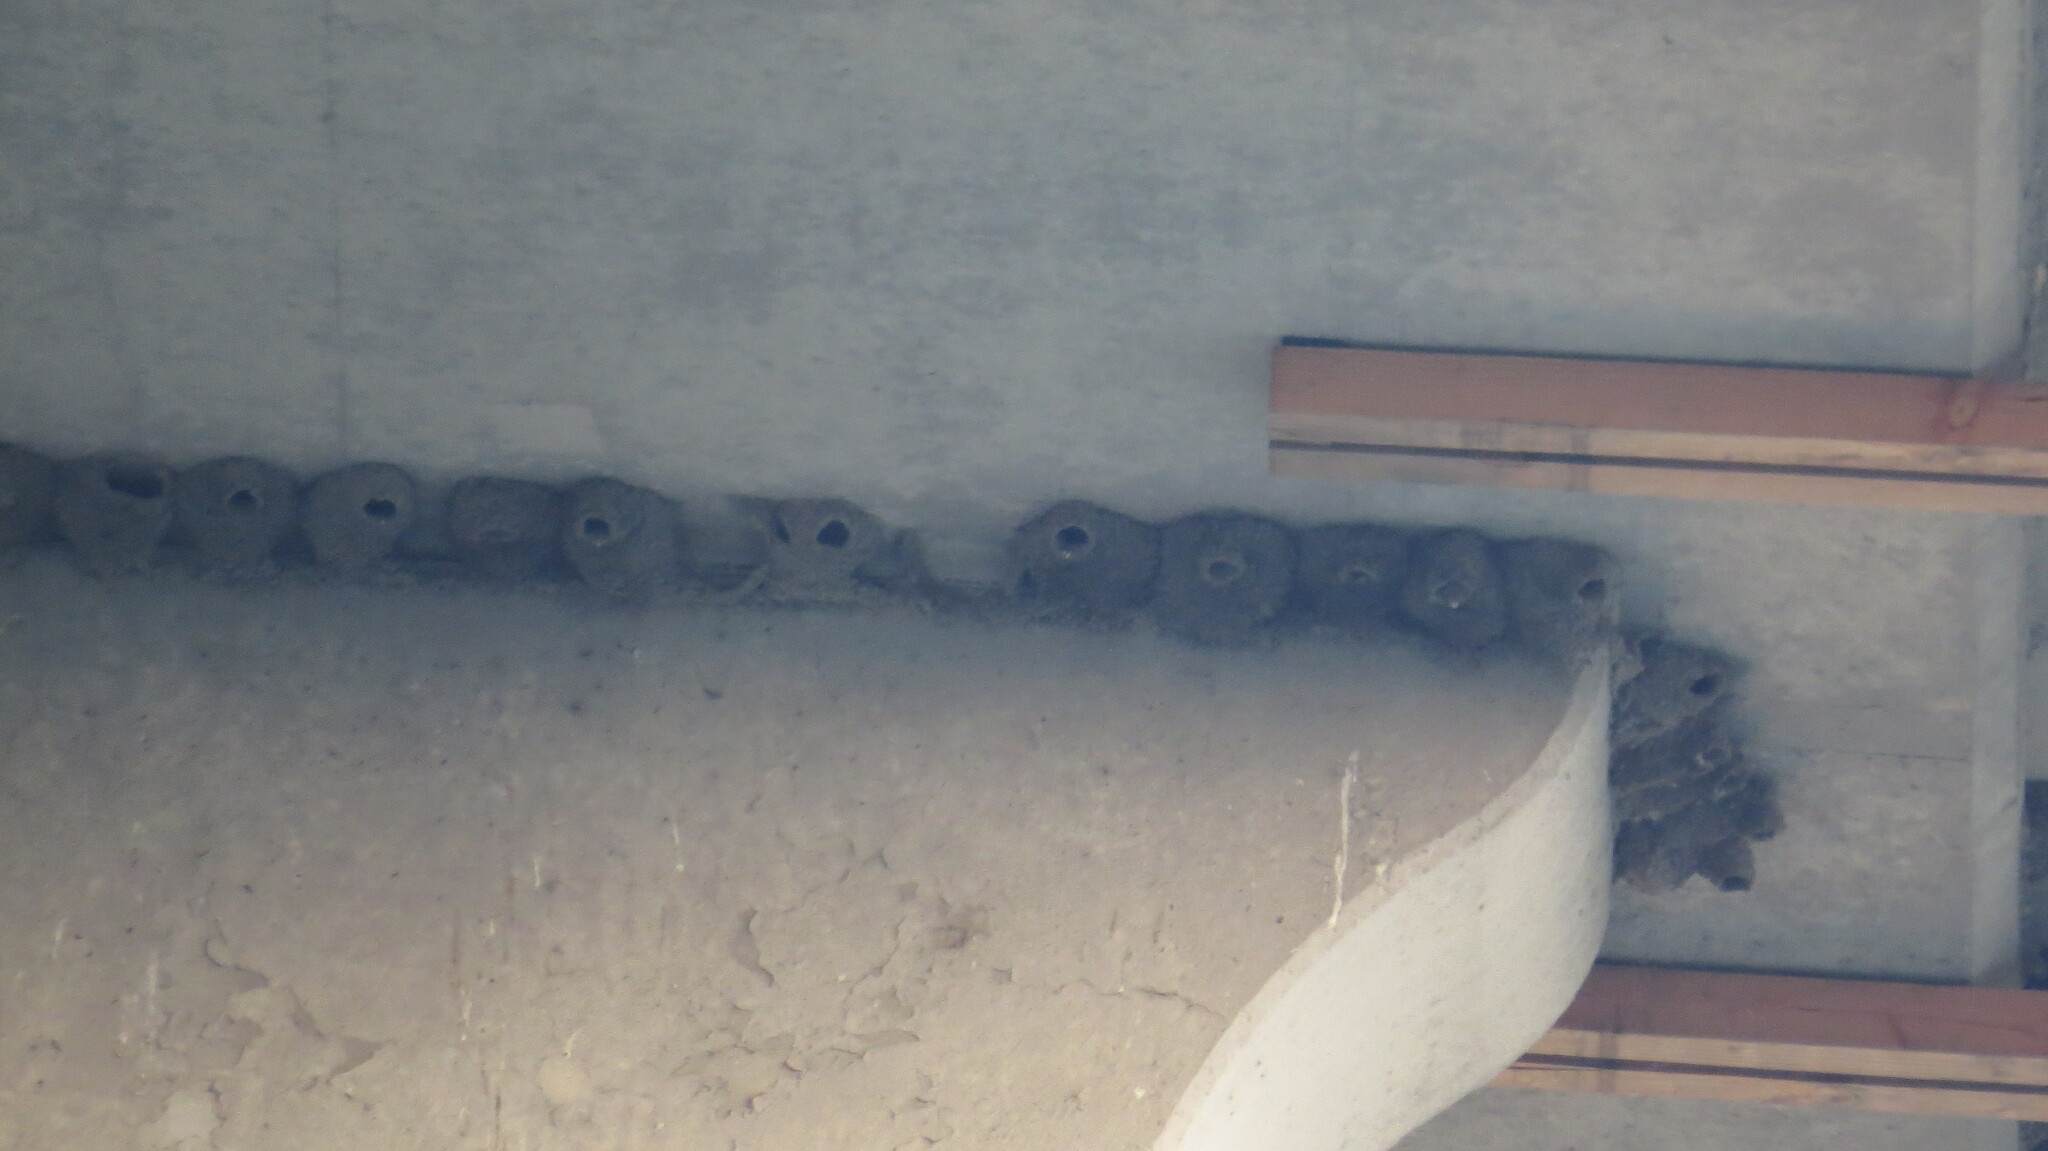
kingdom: Animalia
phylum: Chordata
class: Aves
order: Passeriformes
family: Hirundinidae
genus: Petrochelidon
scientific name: Petrochelidon pyrrhonota
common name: American cliff swallow
